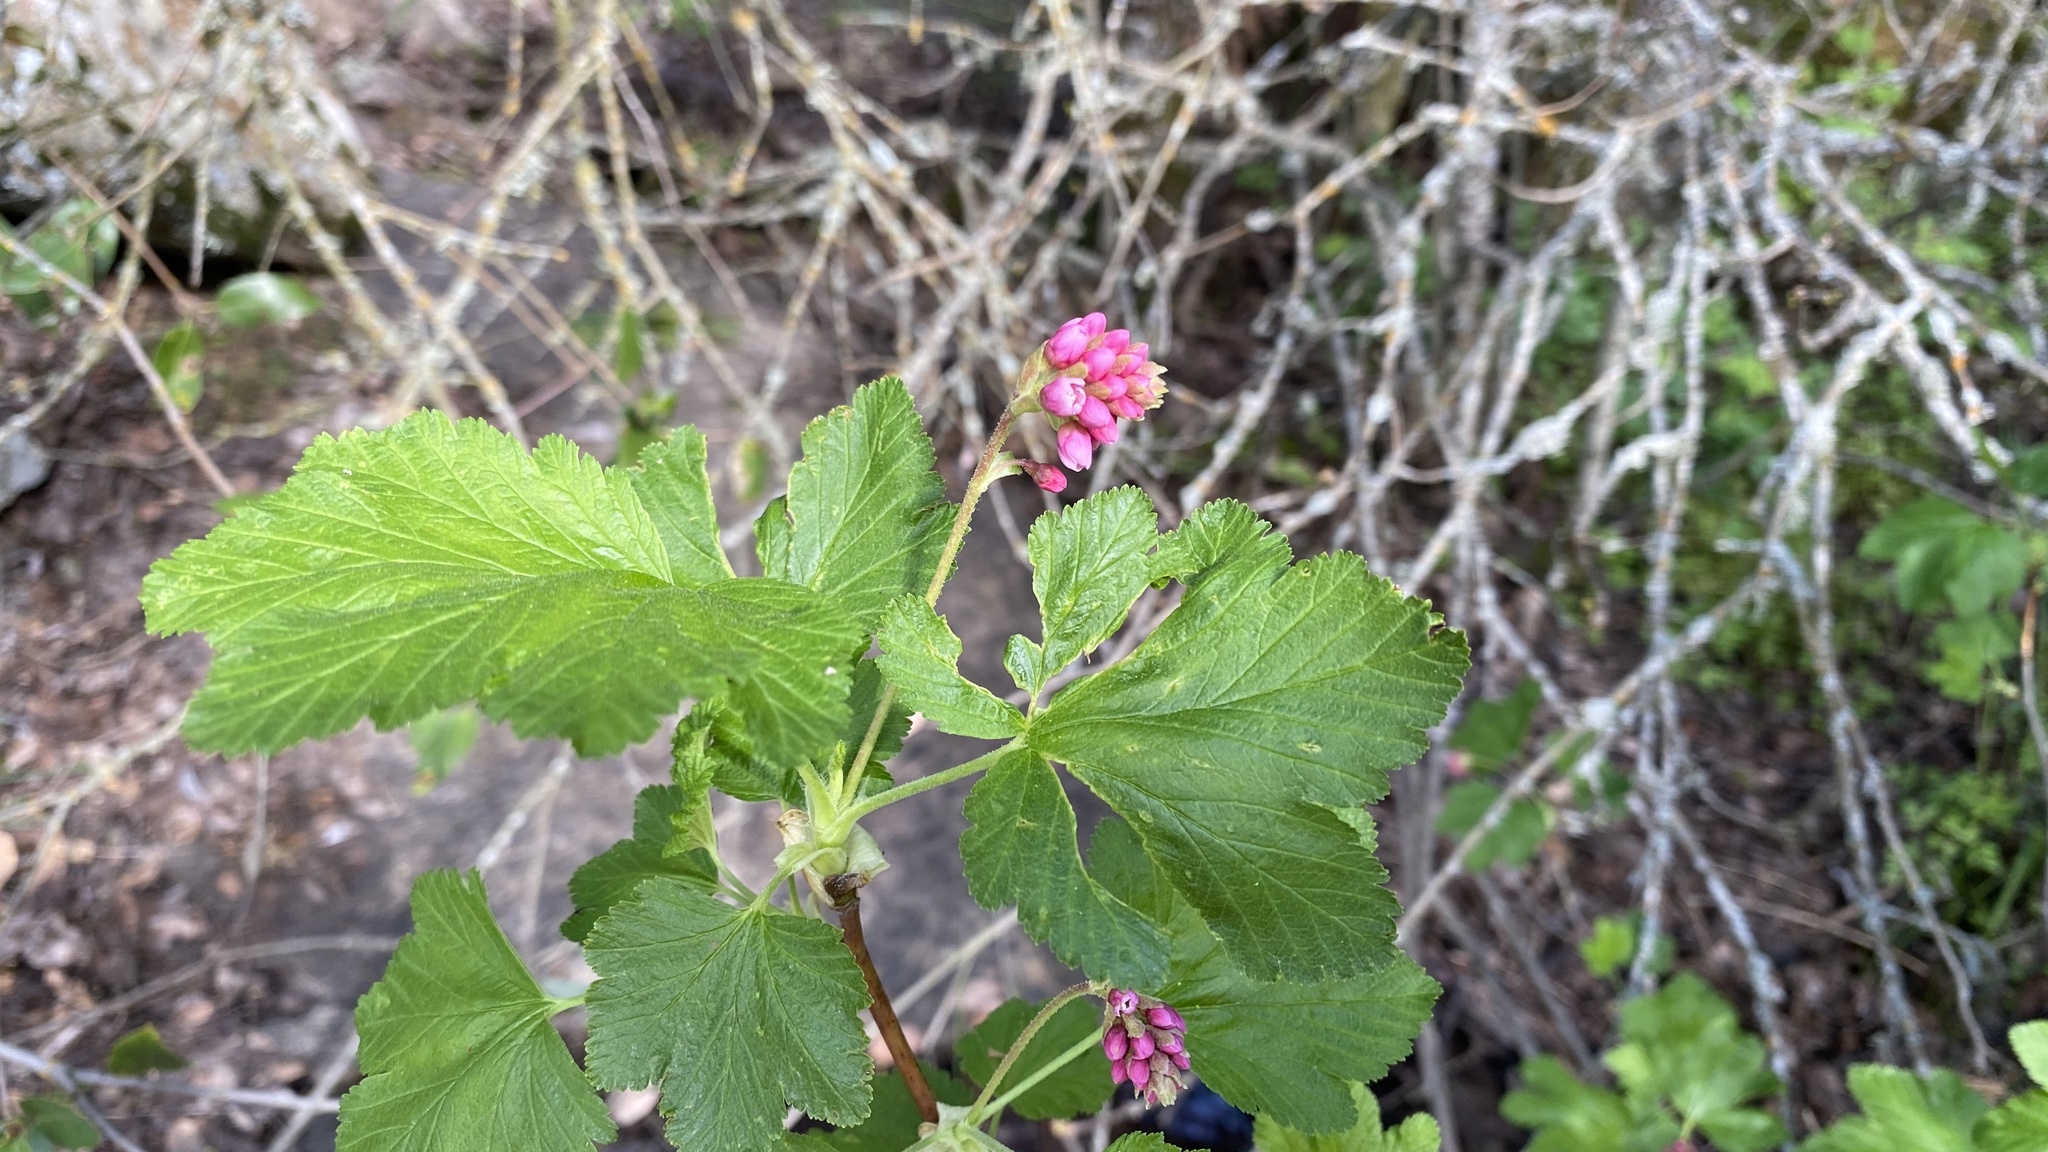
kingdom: Plantae
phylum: Tracheophyta
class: Magnoliopsida
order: Saxifragales
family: Grossulariaceae
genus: Ribes
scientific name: Ribes nevadense
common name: Mountain pink currant
